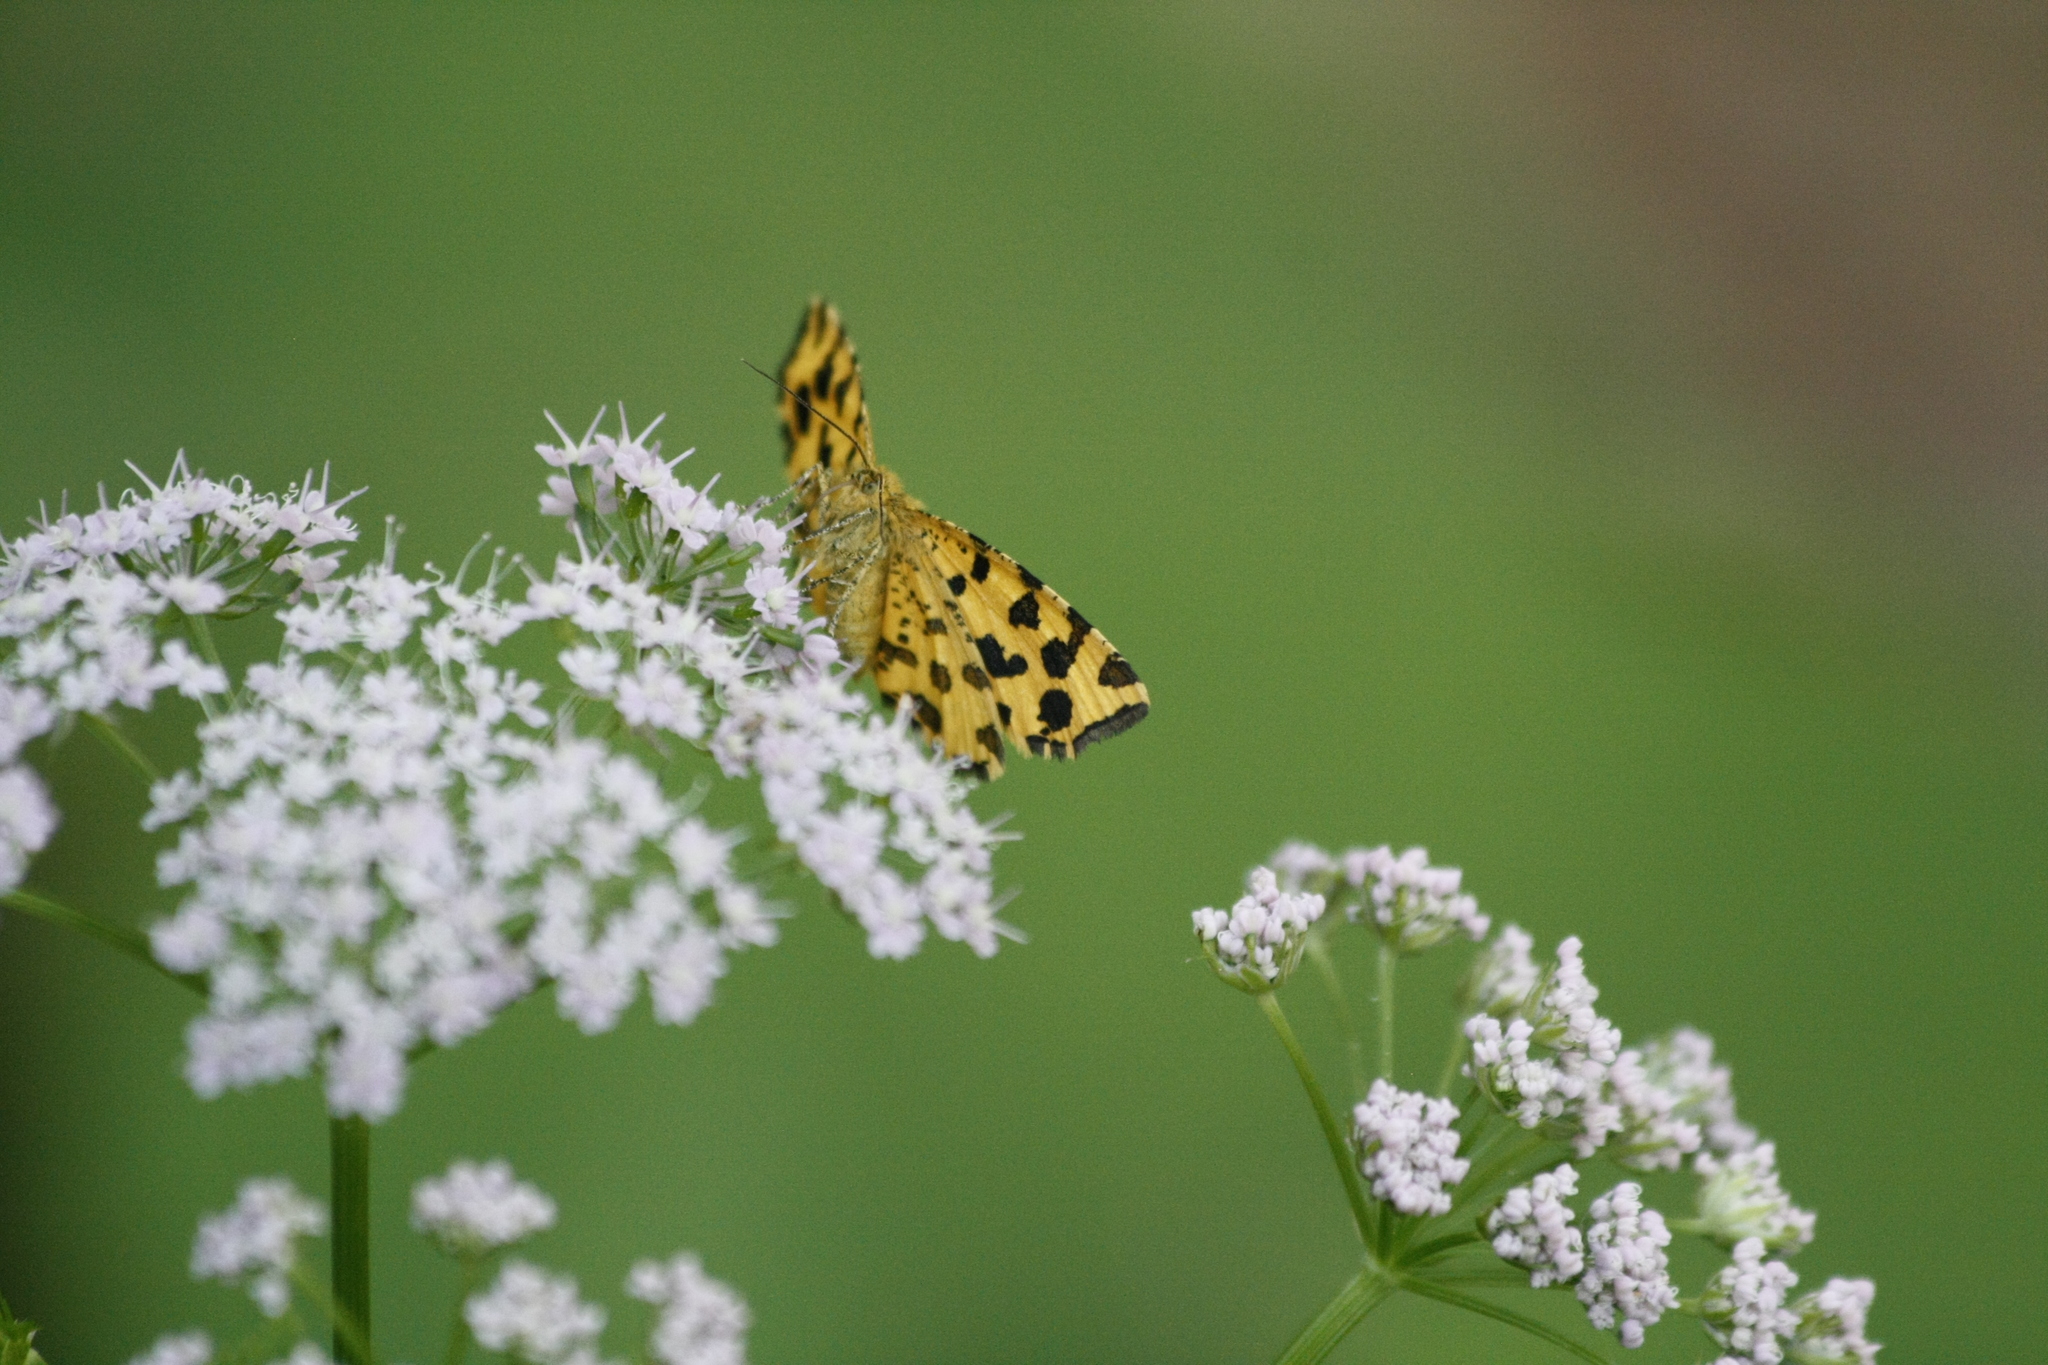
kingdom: Animalia
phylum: Arthropoda
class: Insecta
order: Lepidoptera
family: Geometridae
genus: Pseudopanthera
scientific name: Pseudopanthera macularia
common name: Speckled yellow
